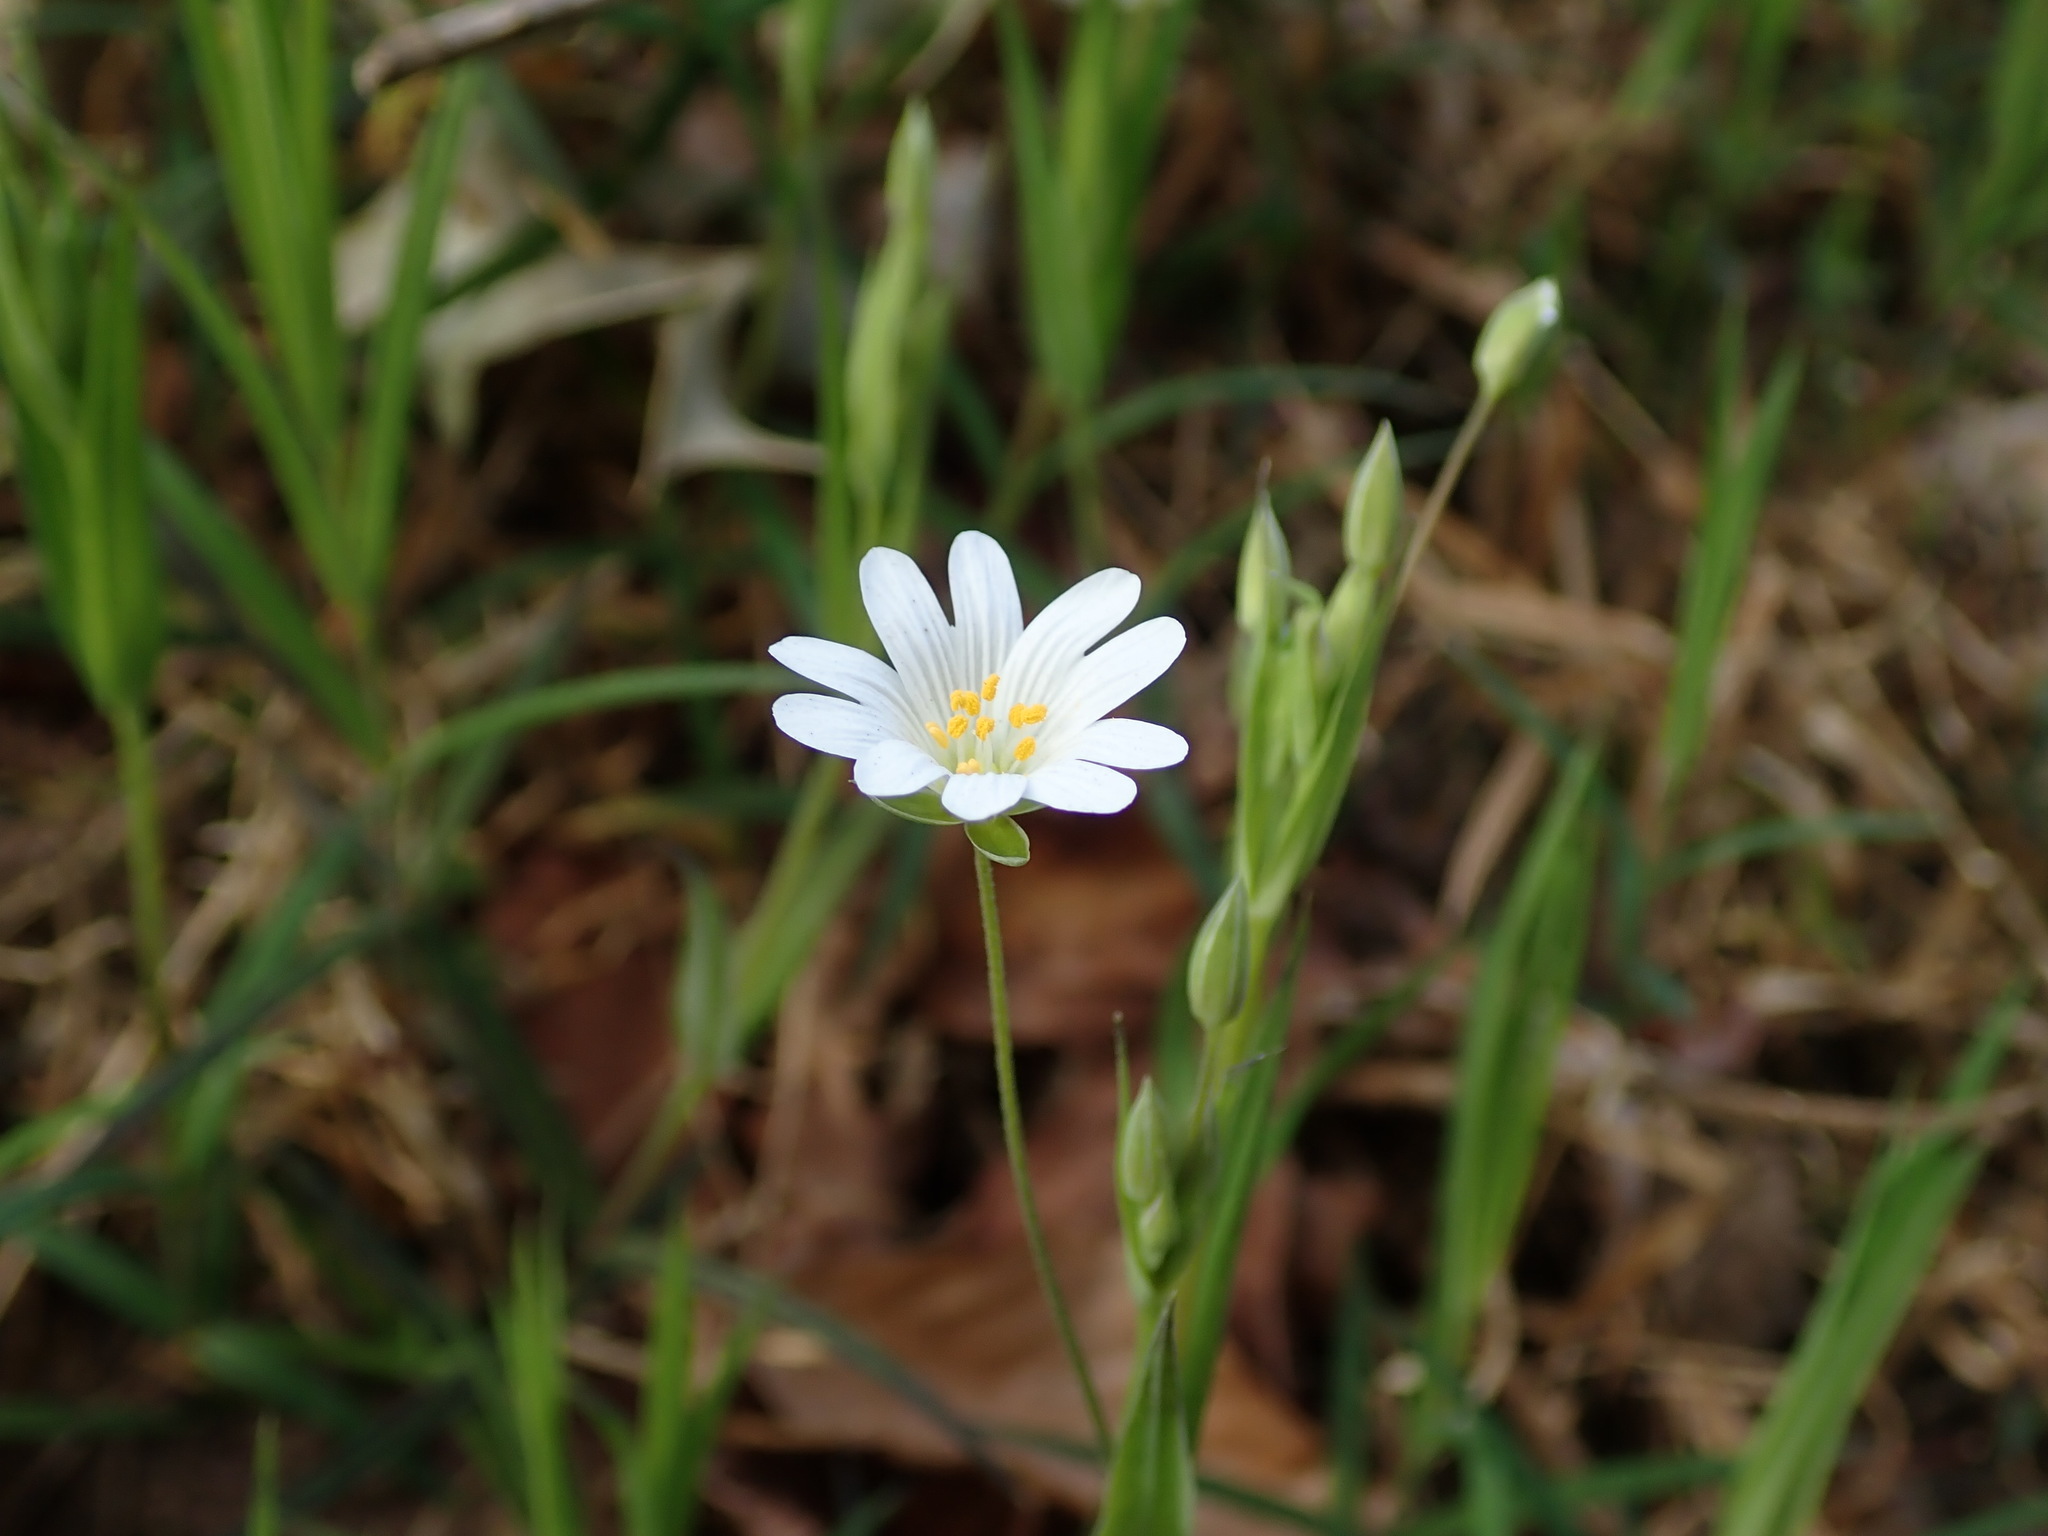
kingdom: Plantae
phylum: Tracheophyta
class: Magnoliopsida
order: Caryophyllales
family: Caryophyllaceae
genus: Rabelera
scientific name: Rabelera holostea
